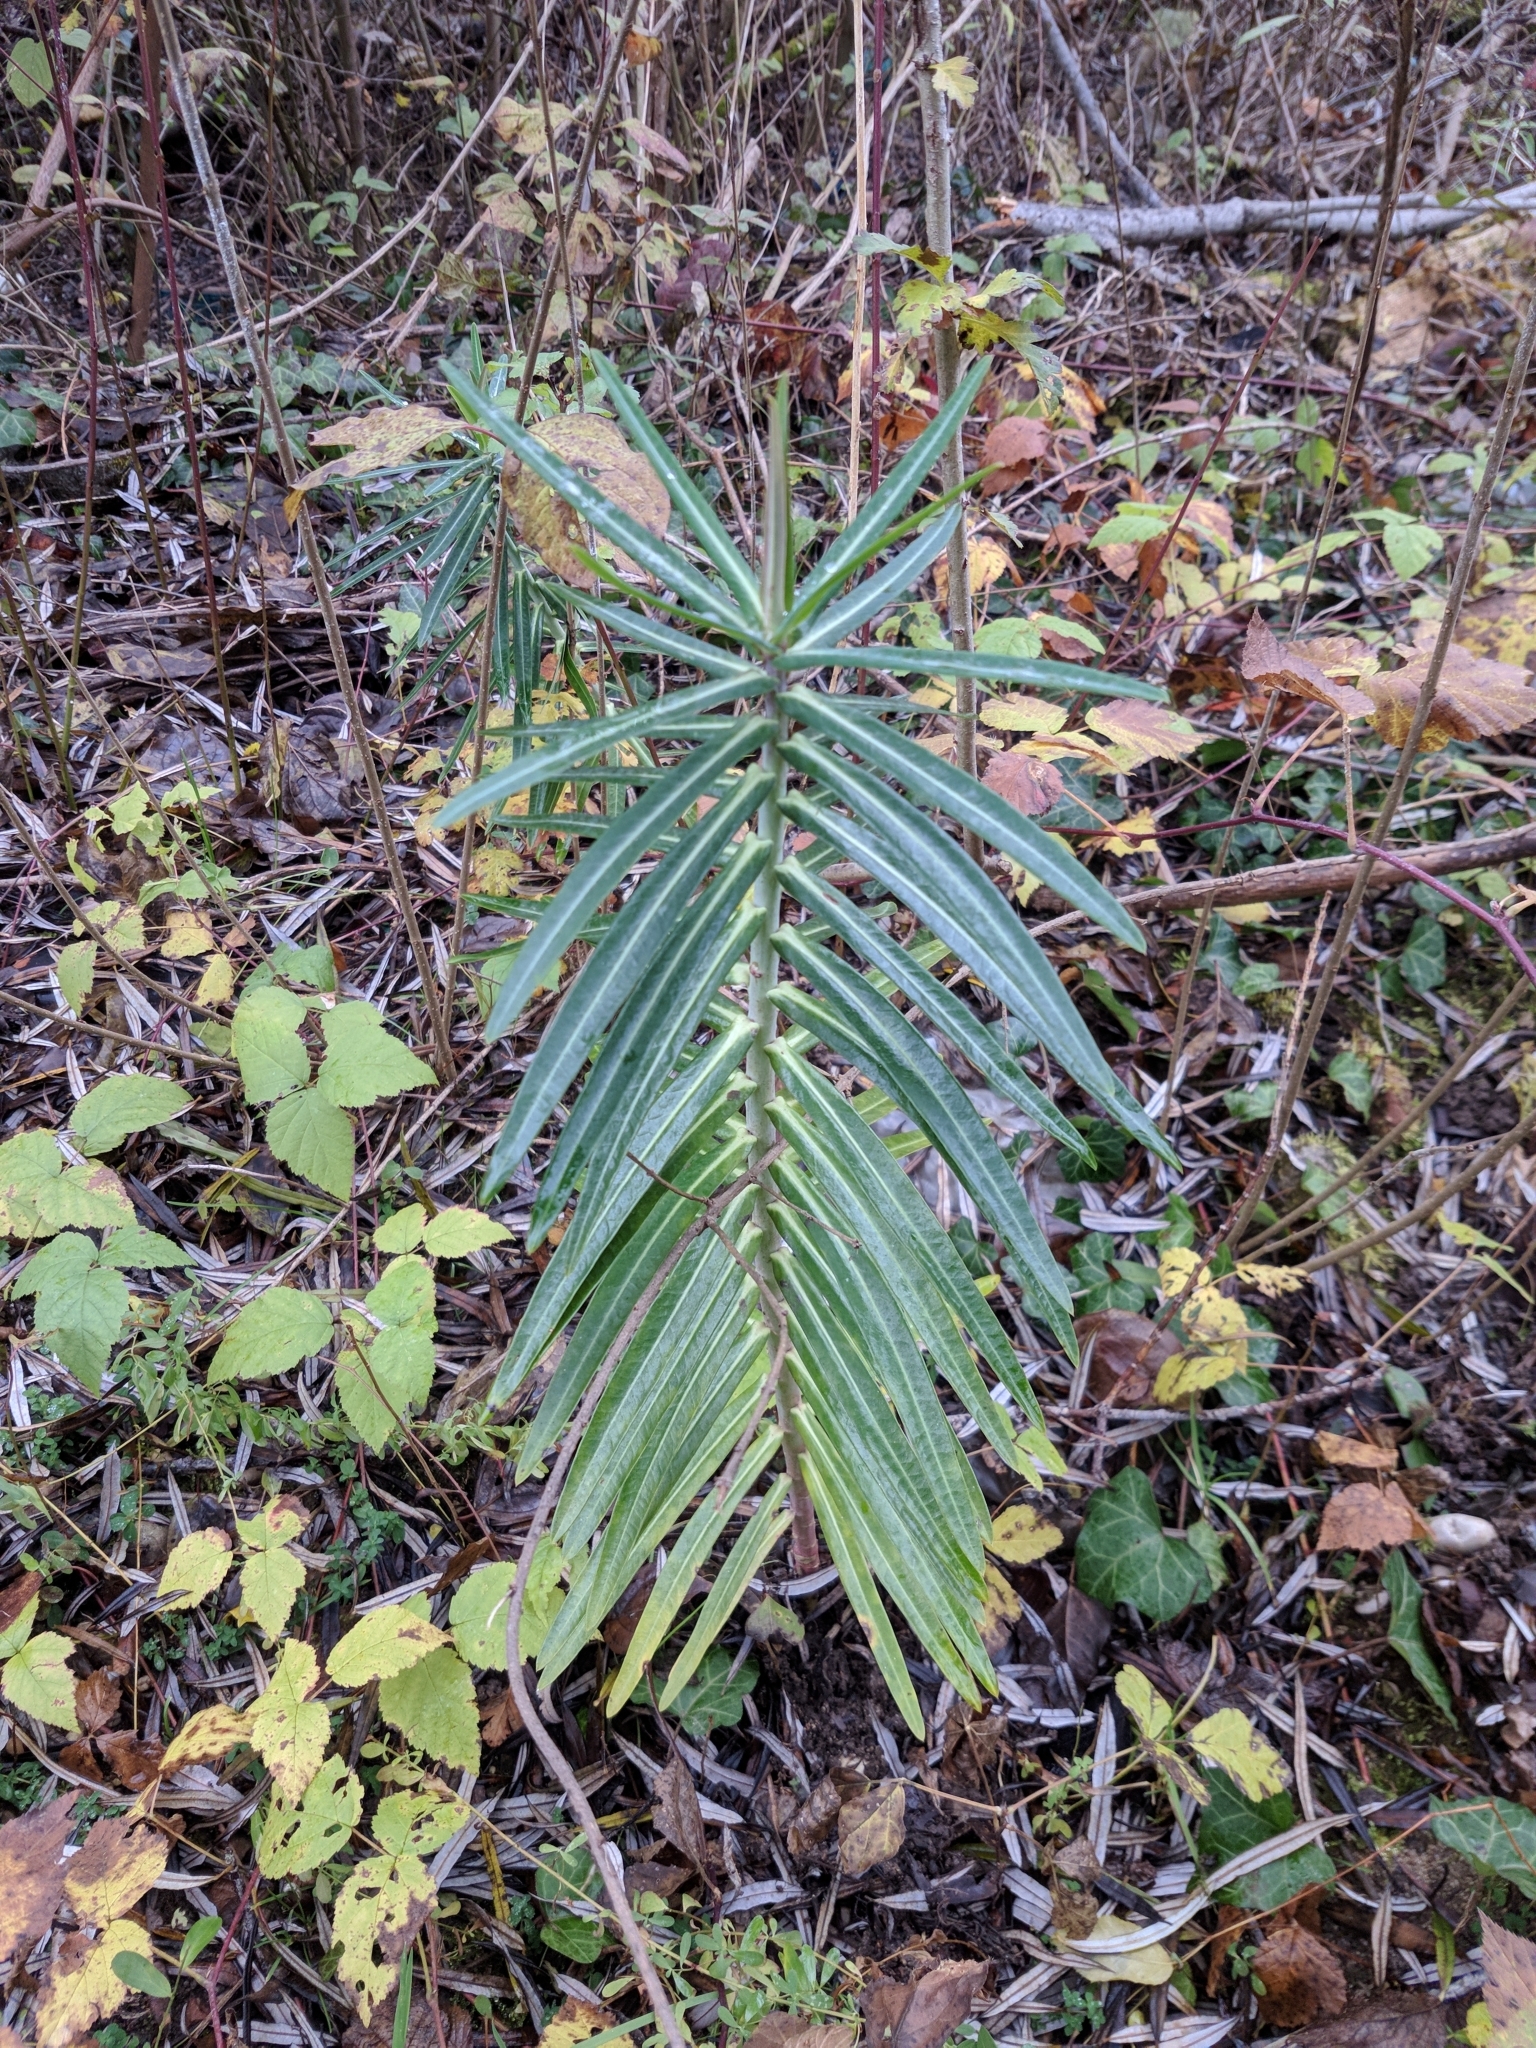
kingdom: Plantae
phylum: Tracheophyta
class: Magnoliopsida
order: Malpighiales
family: Euphorbiaceae
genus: Euphorbia
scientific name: Euphorbia lathyris
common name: Caper spurge
